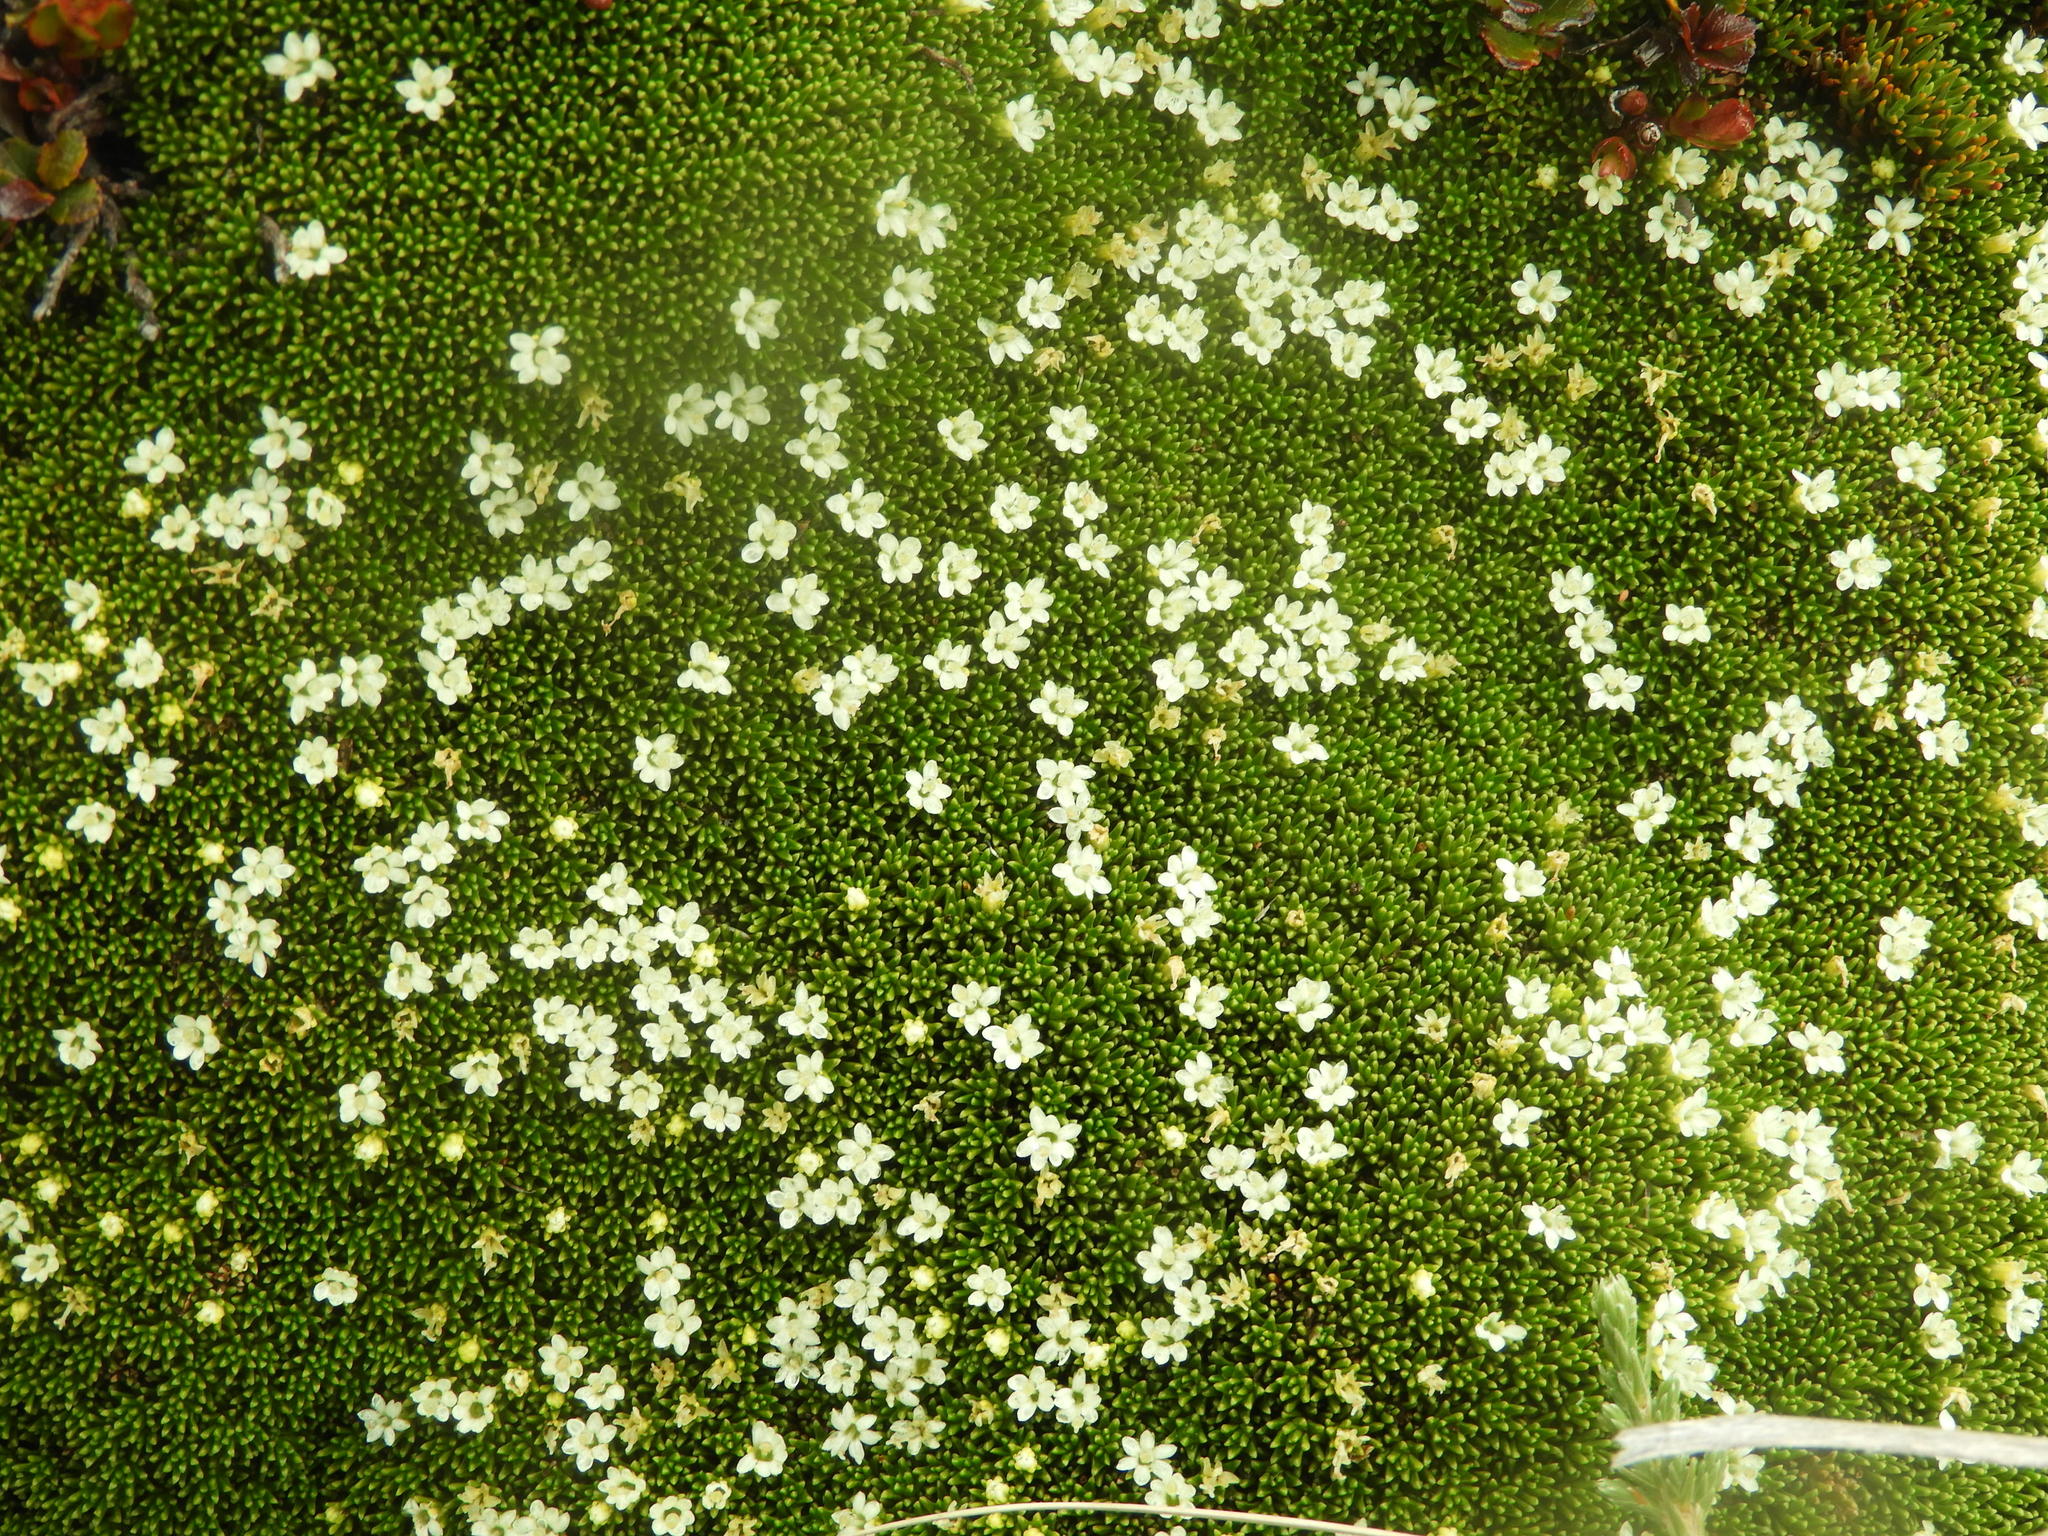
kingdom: Plantae
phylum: Tracheophyta
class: Magnoliopsida
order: Asterales
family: Stylidiaceae
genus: Phyllachne
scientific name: Phyllachne colensoi
